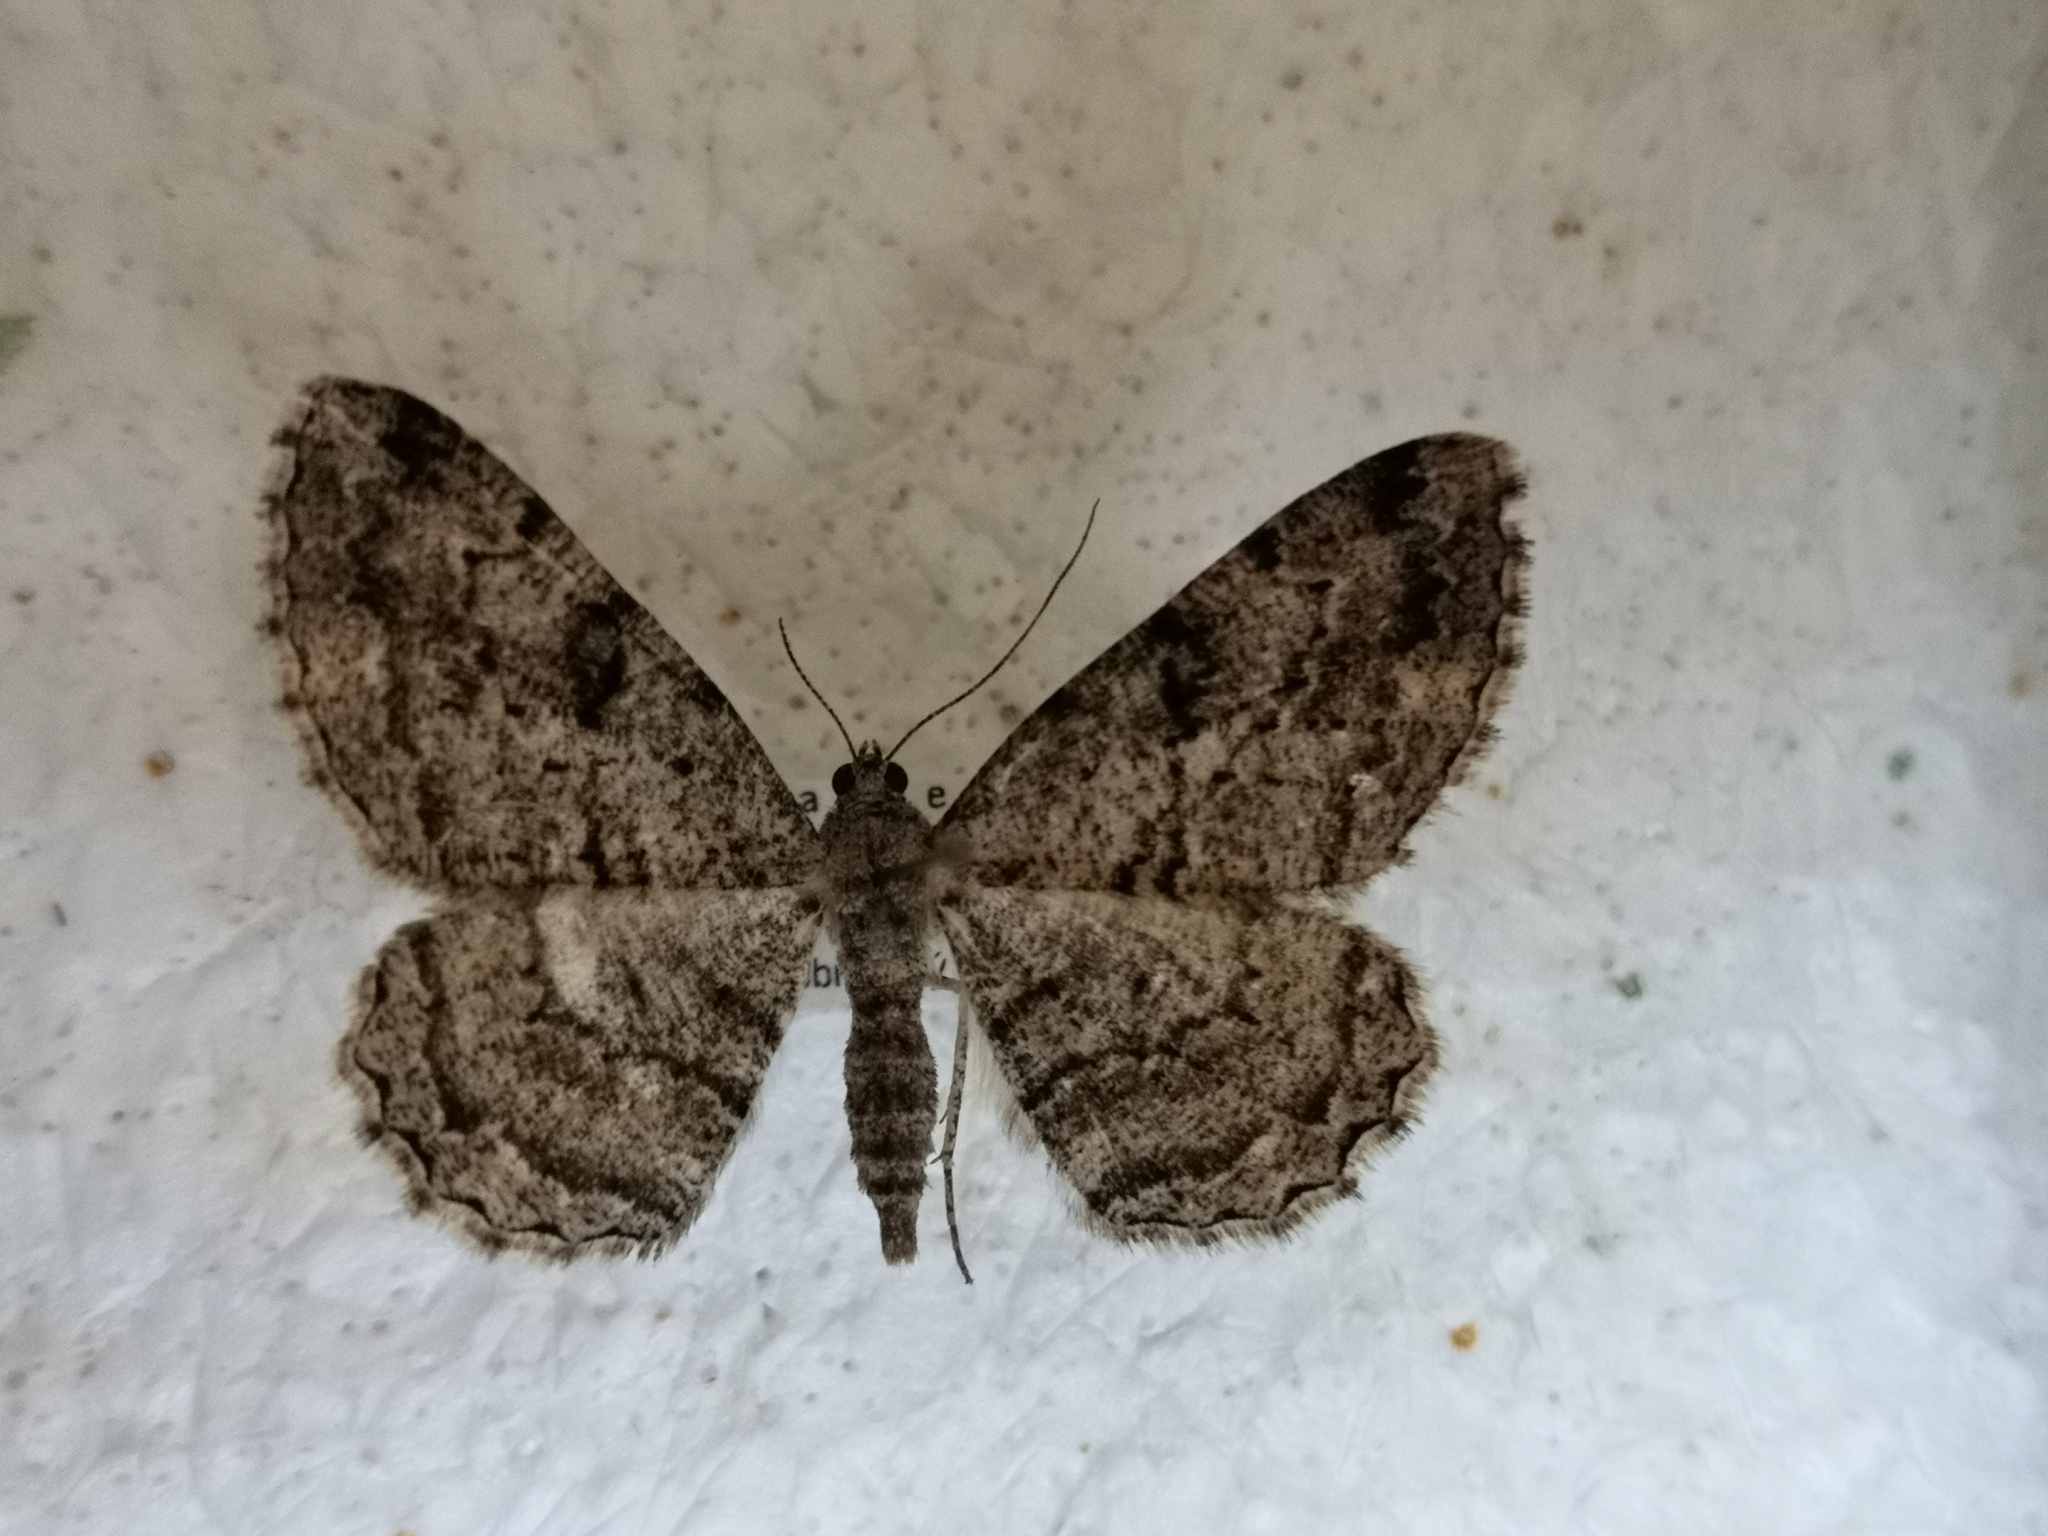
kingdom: Animalia
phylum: Arthropoda
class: Insecta
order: Lepidoptera
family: Geometridae
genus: Peribatodes
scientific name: Peribatodes rhomboidaria
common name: Willow beauty
